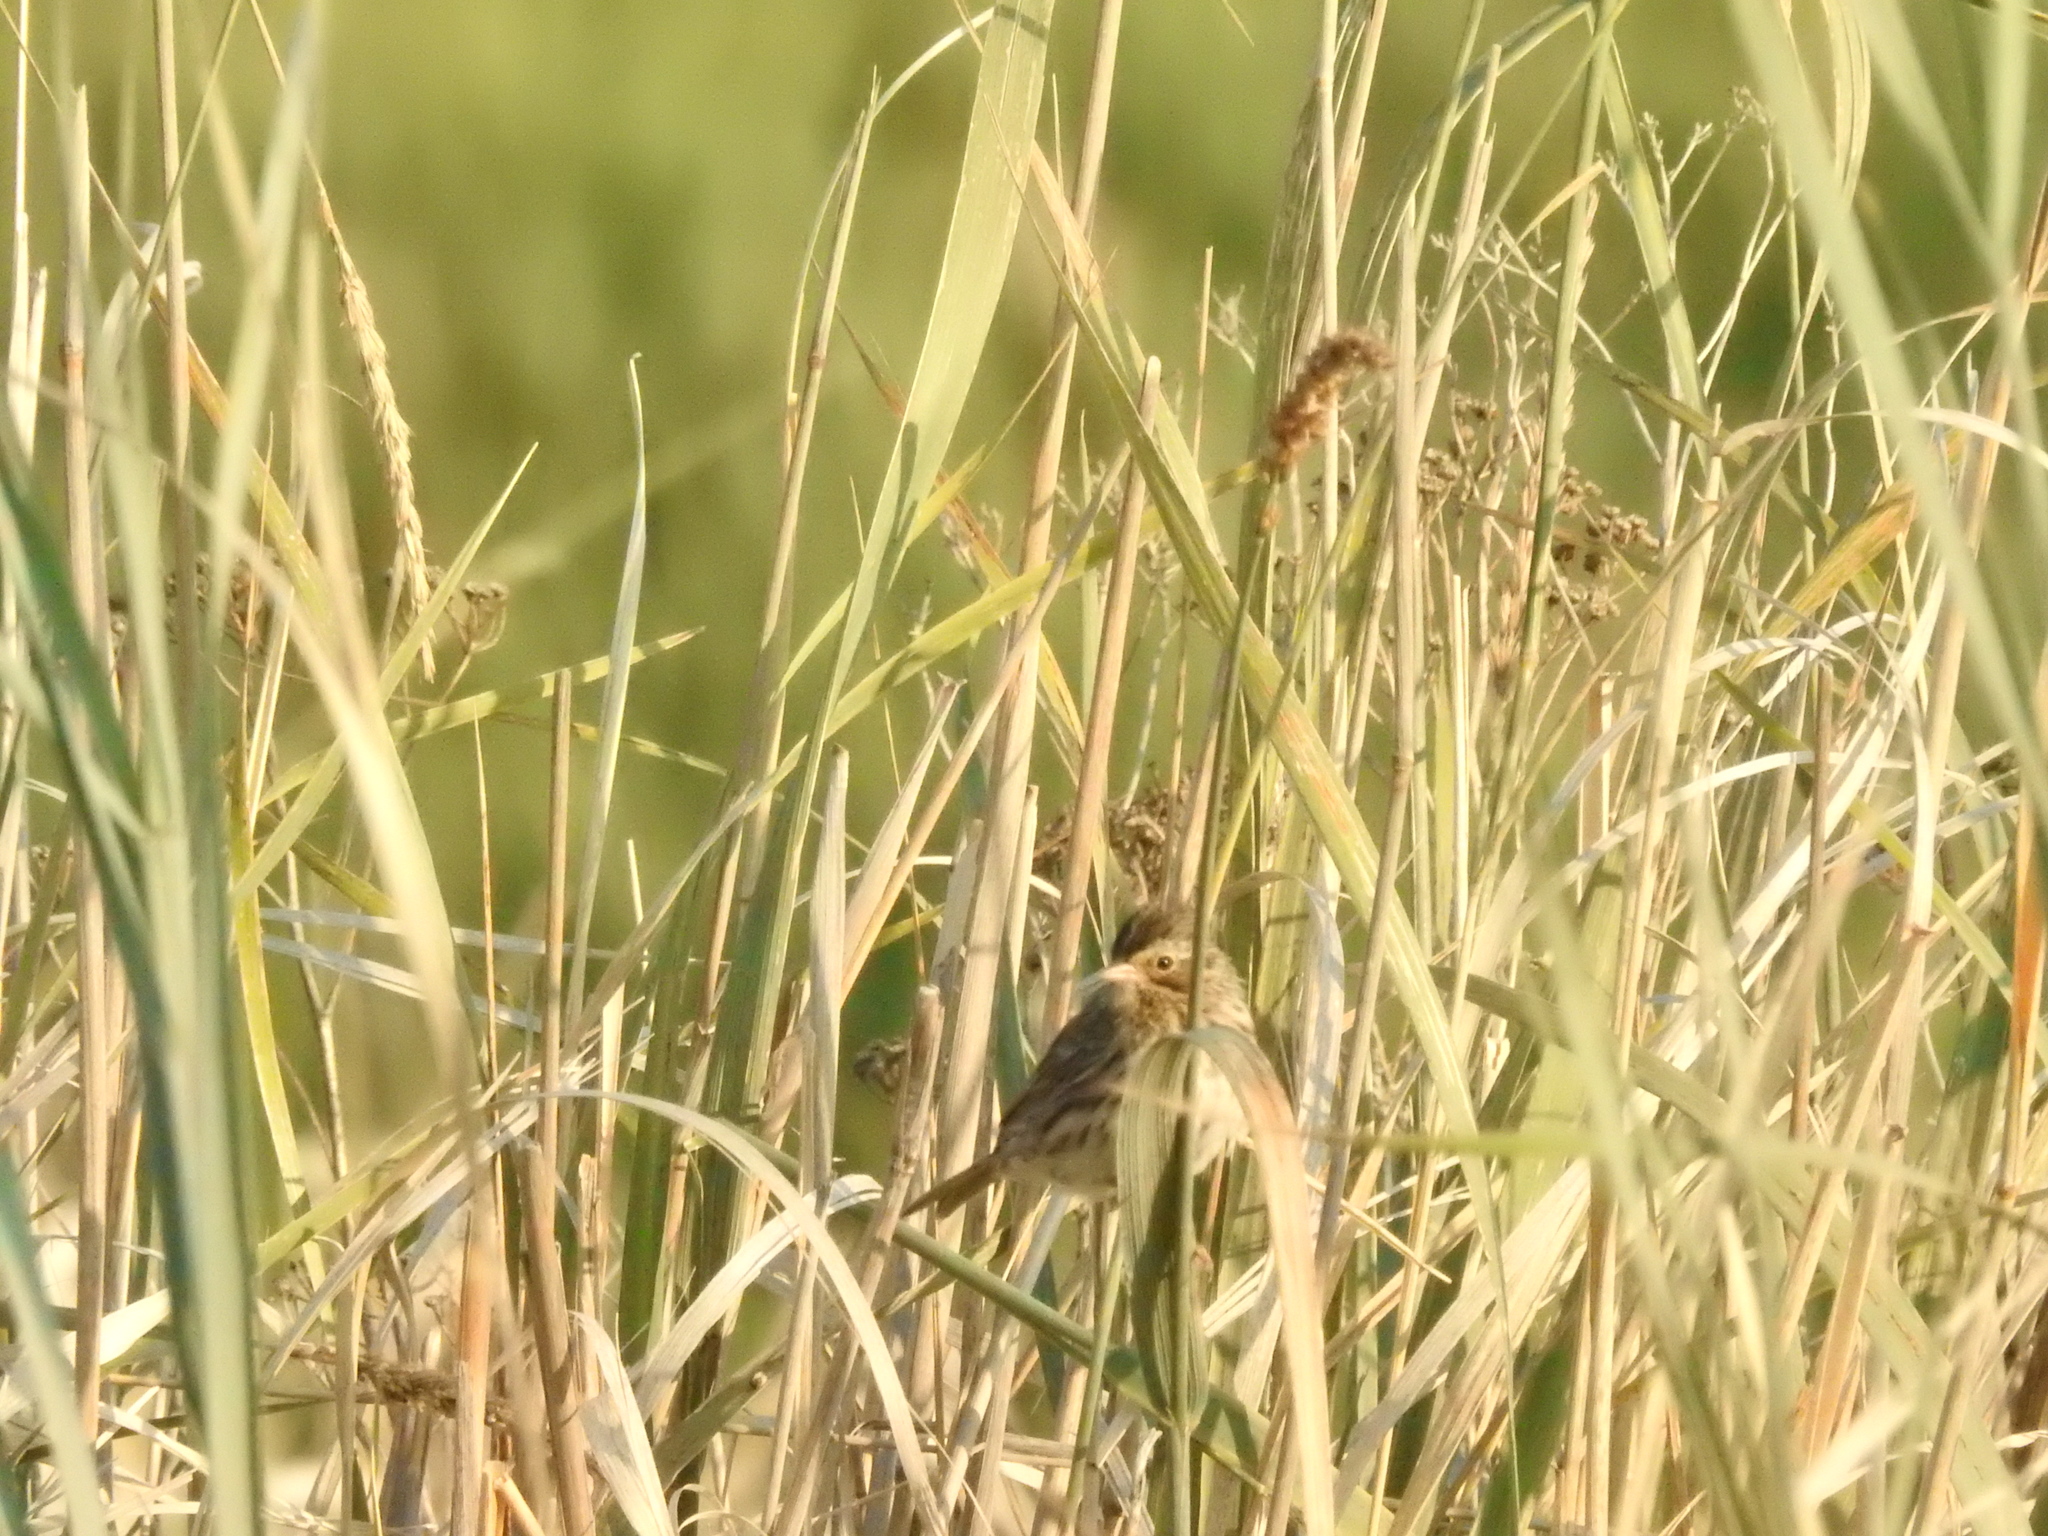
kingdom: Animalia
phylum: Chordata
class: Aves
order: Passeriformes
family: Passerellidae
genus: Passerculus
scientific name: Passerculus sandwichensis
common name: Savannah sparrow
